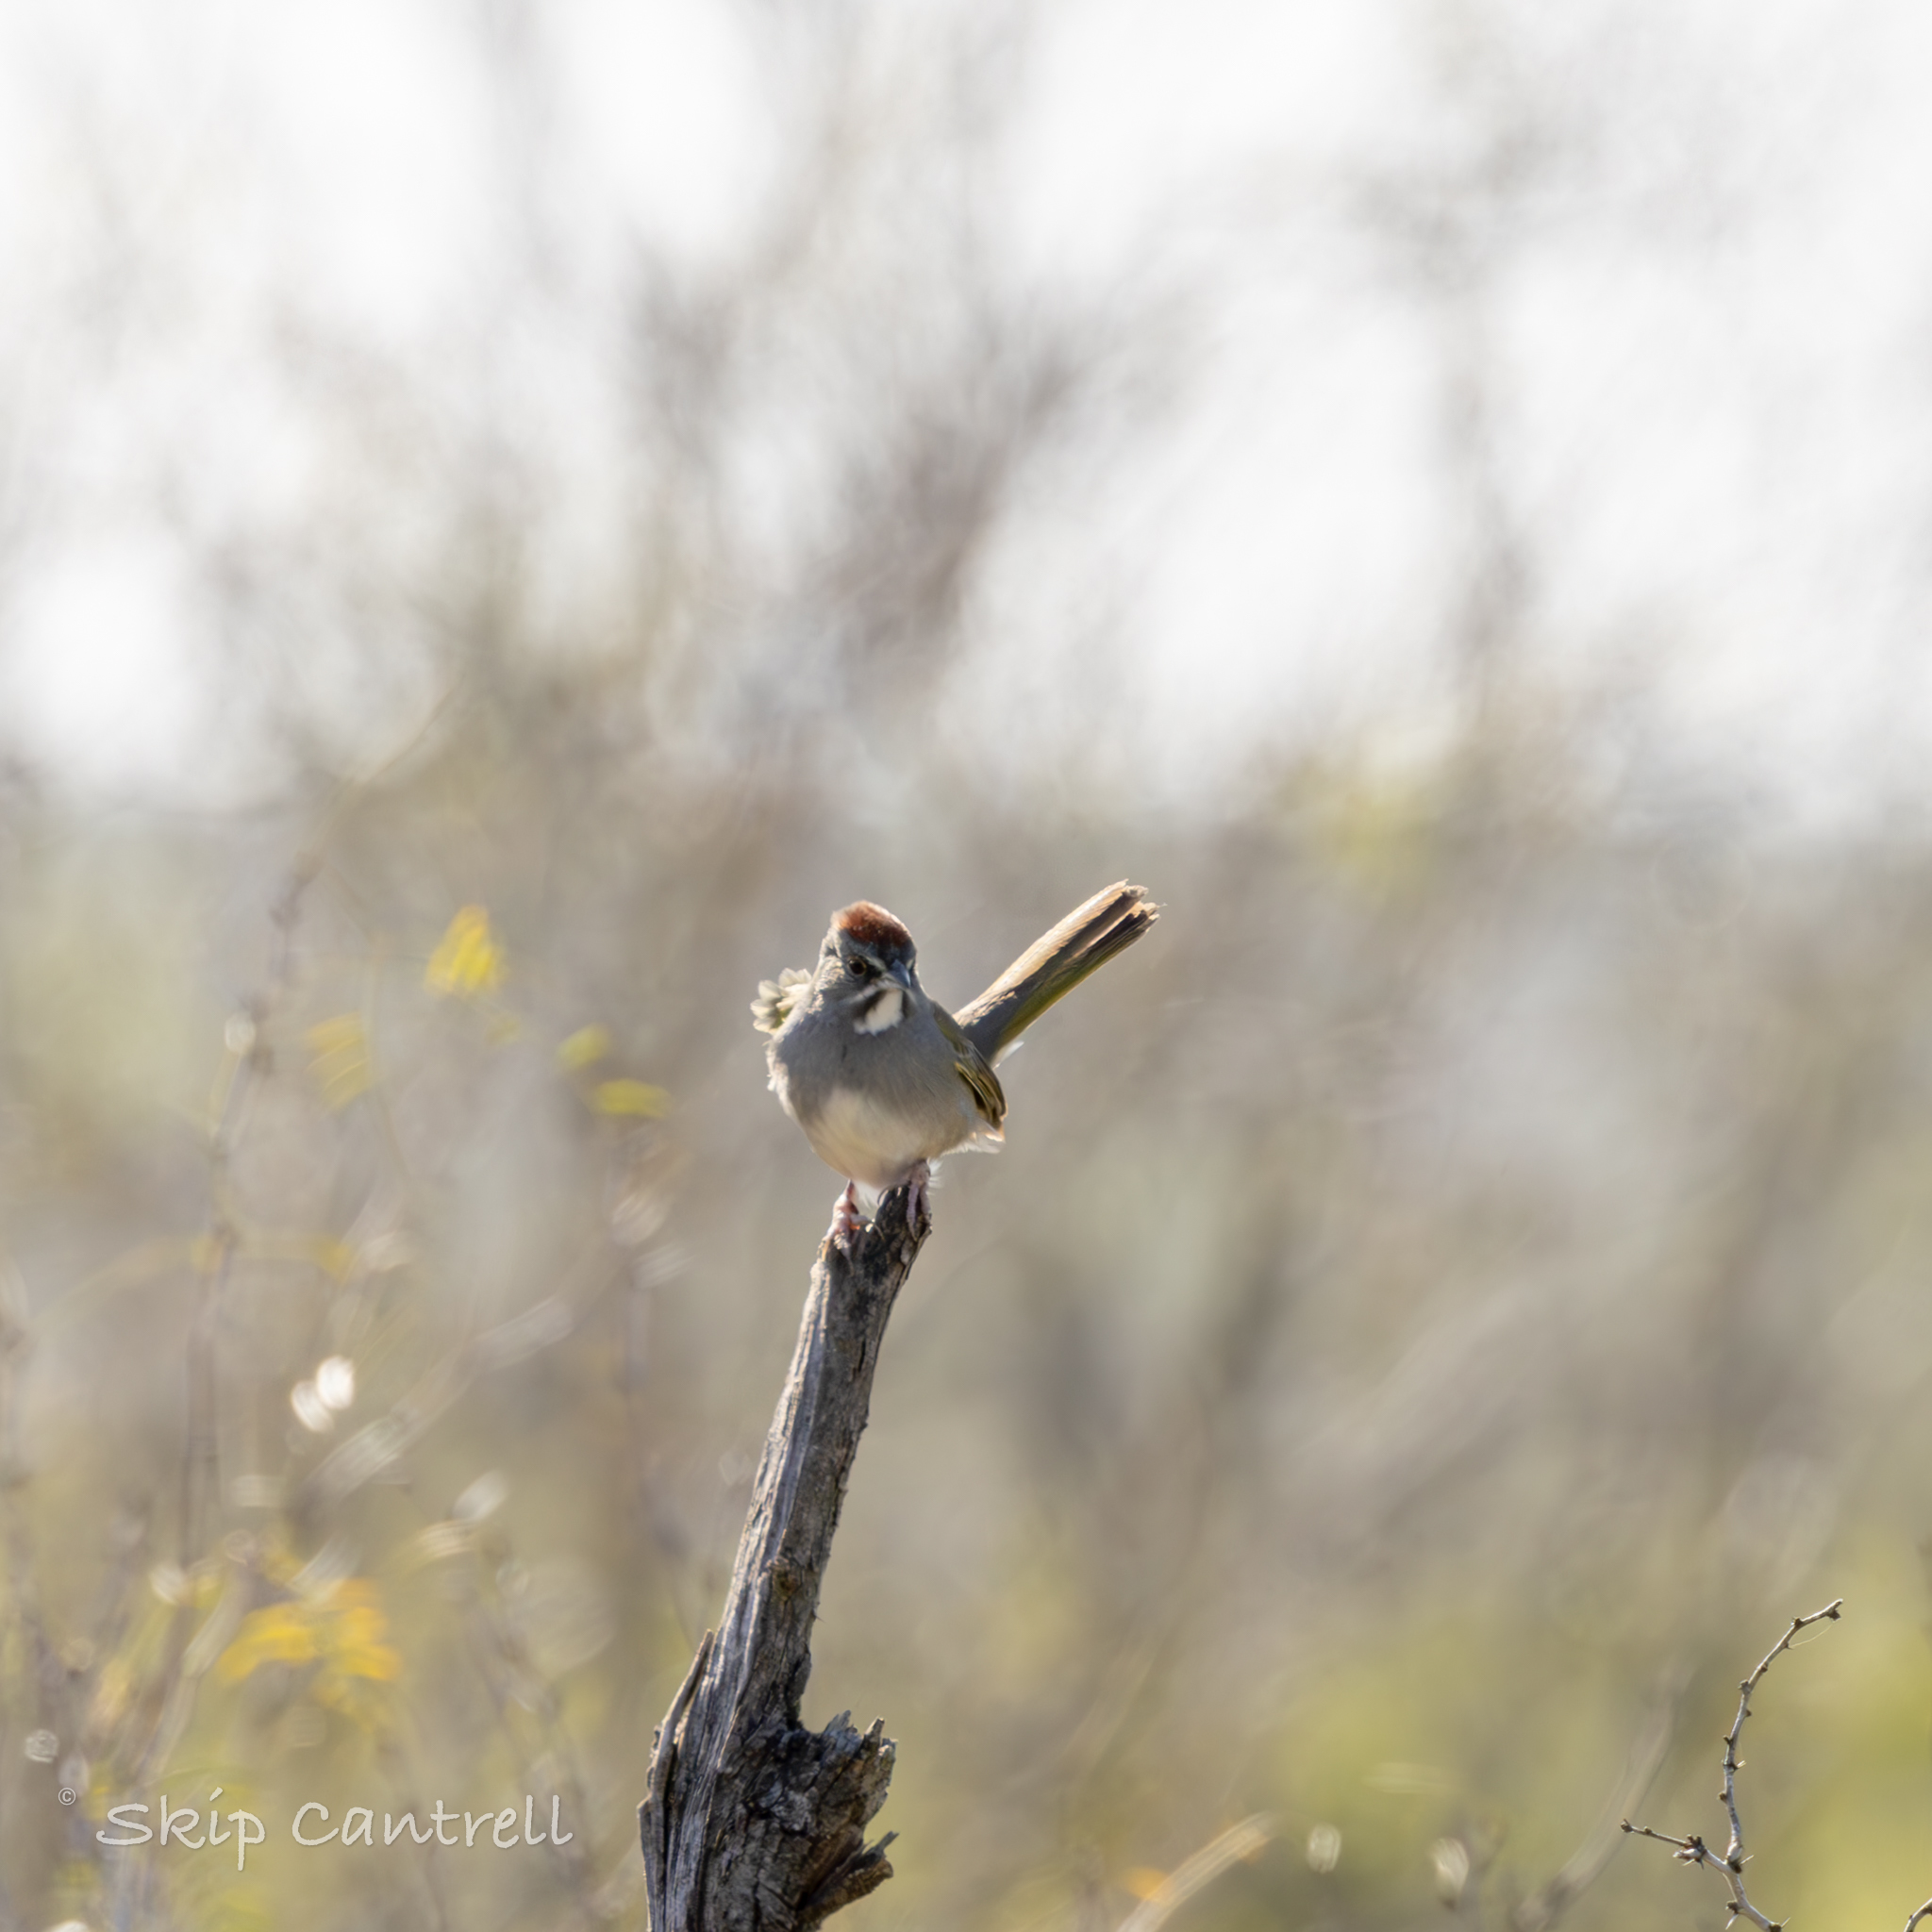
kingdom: Animalia
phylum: Chordata
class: Aves
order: Passeriformes
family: Passerellidae
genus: Pipilo
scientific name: Pipilo chlorurus
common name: Green-tailed towhee
